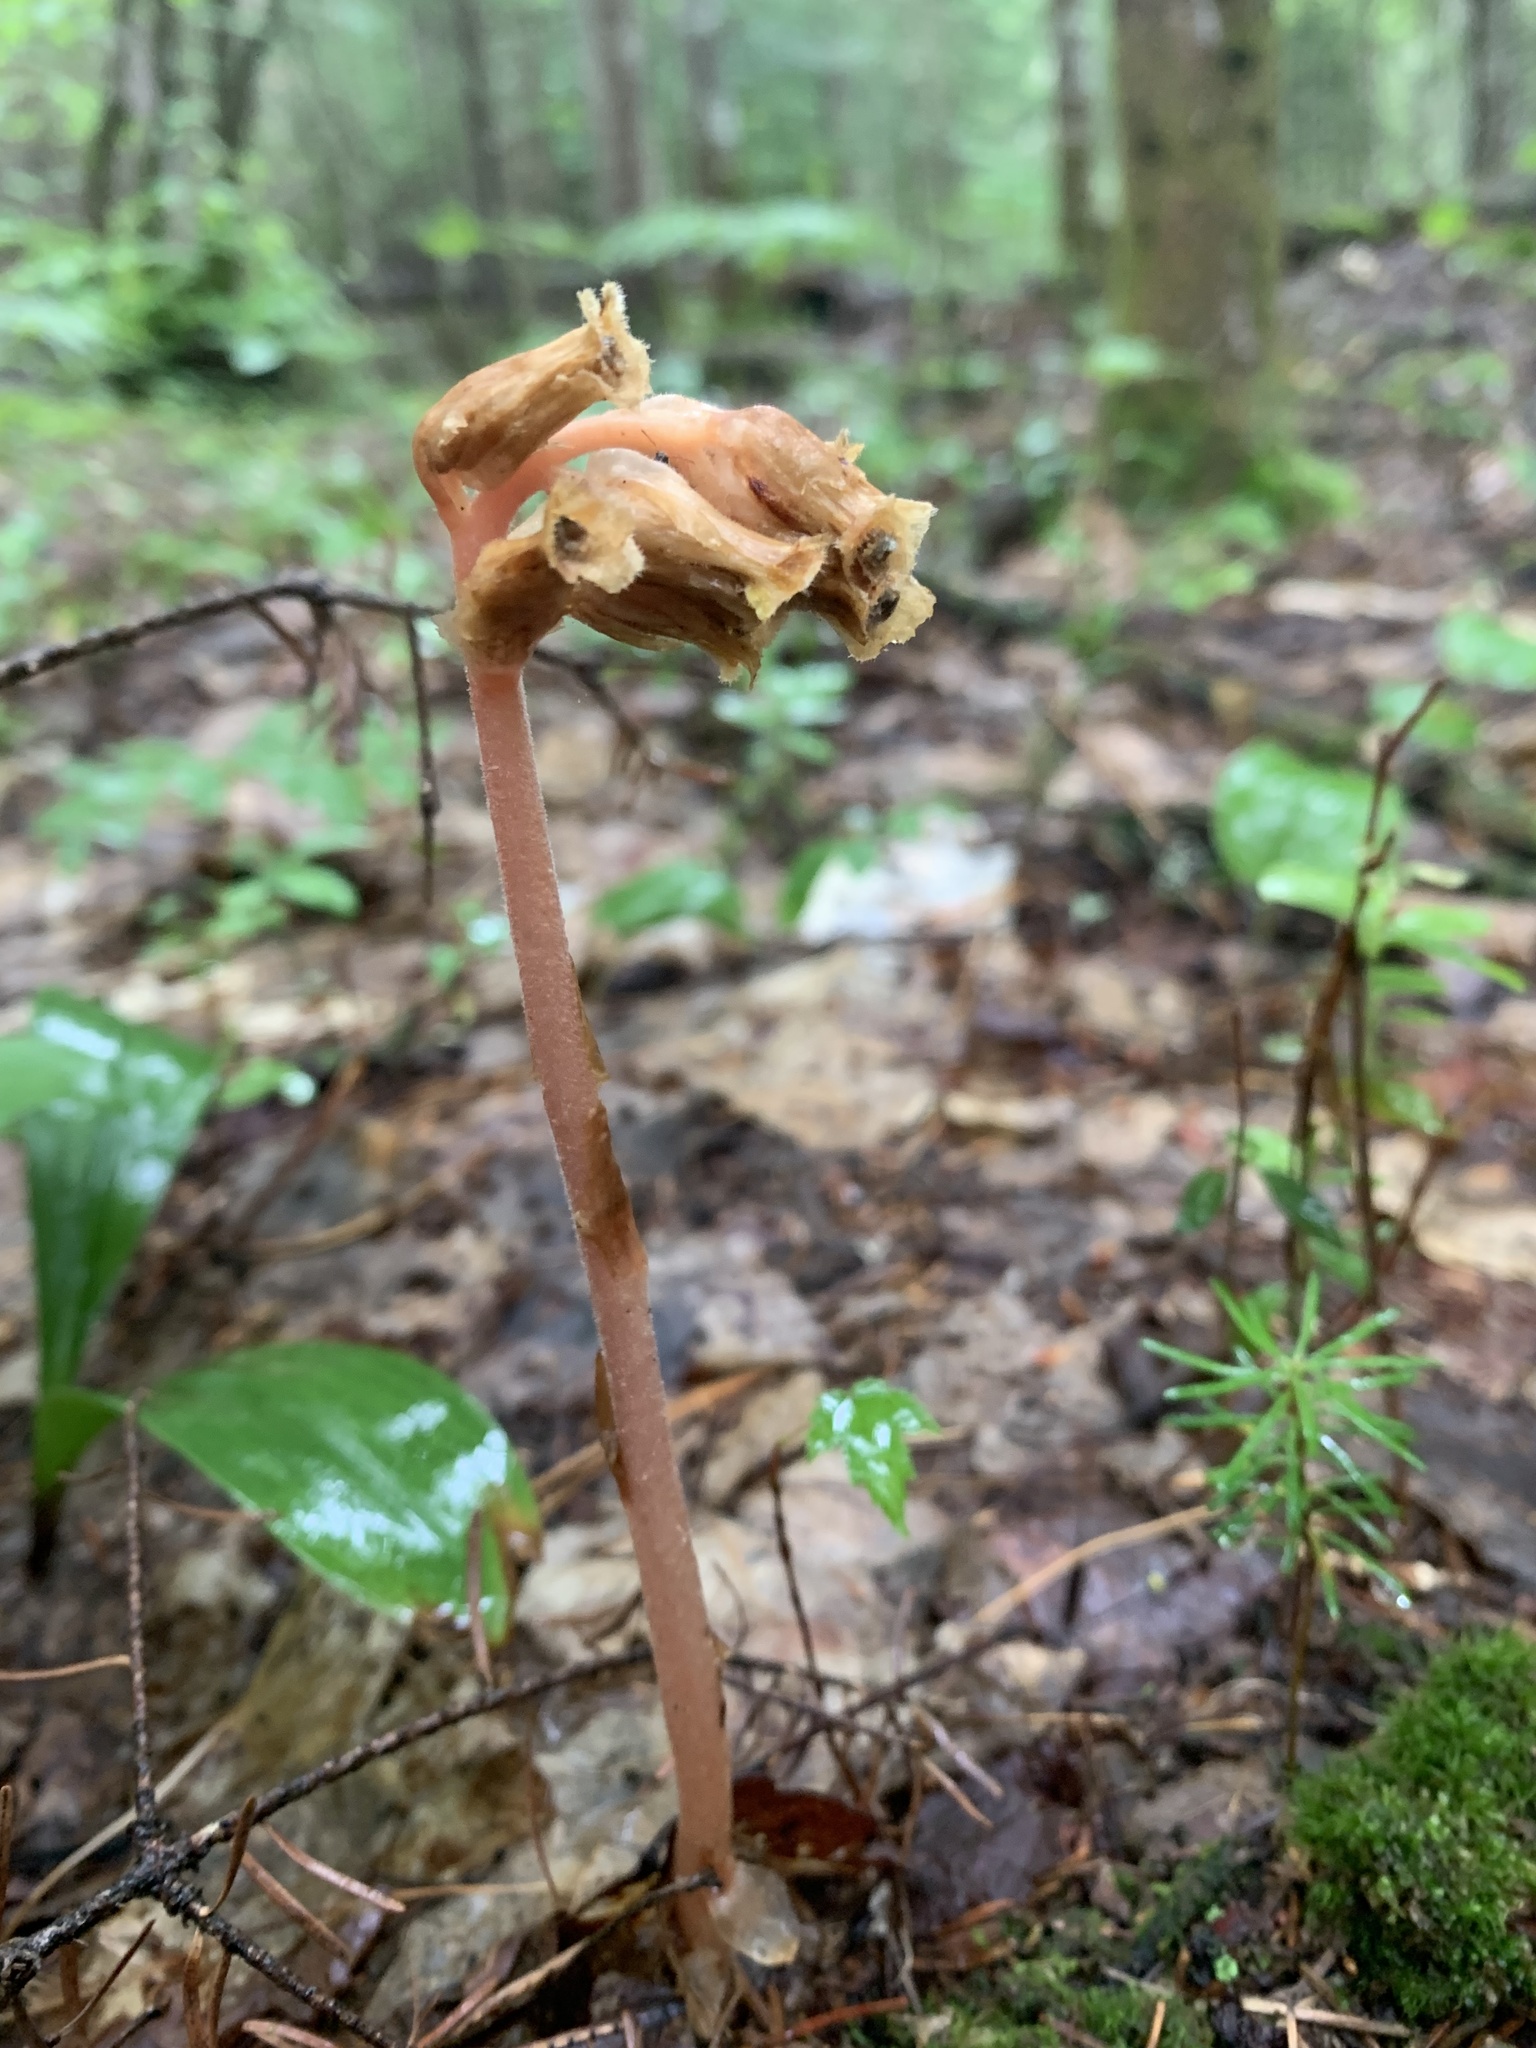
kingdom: Plantae
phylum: Tracheophyta
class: Magnoliopsida
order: Ericales
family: Ericaceae
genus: Hypopitys
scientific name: Hypopitys monotropa
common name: Yellow bird's-nest
